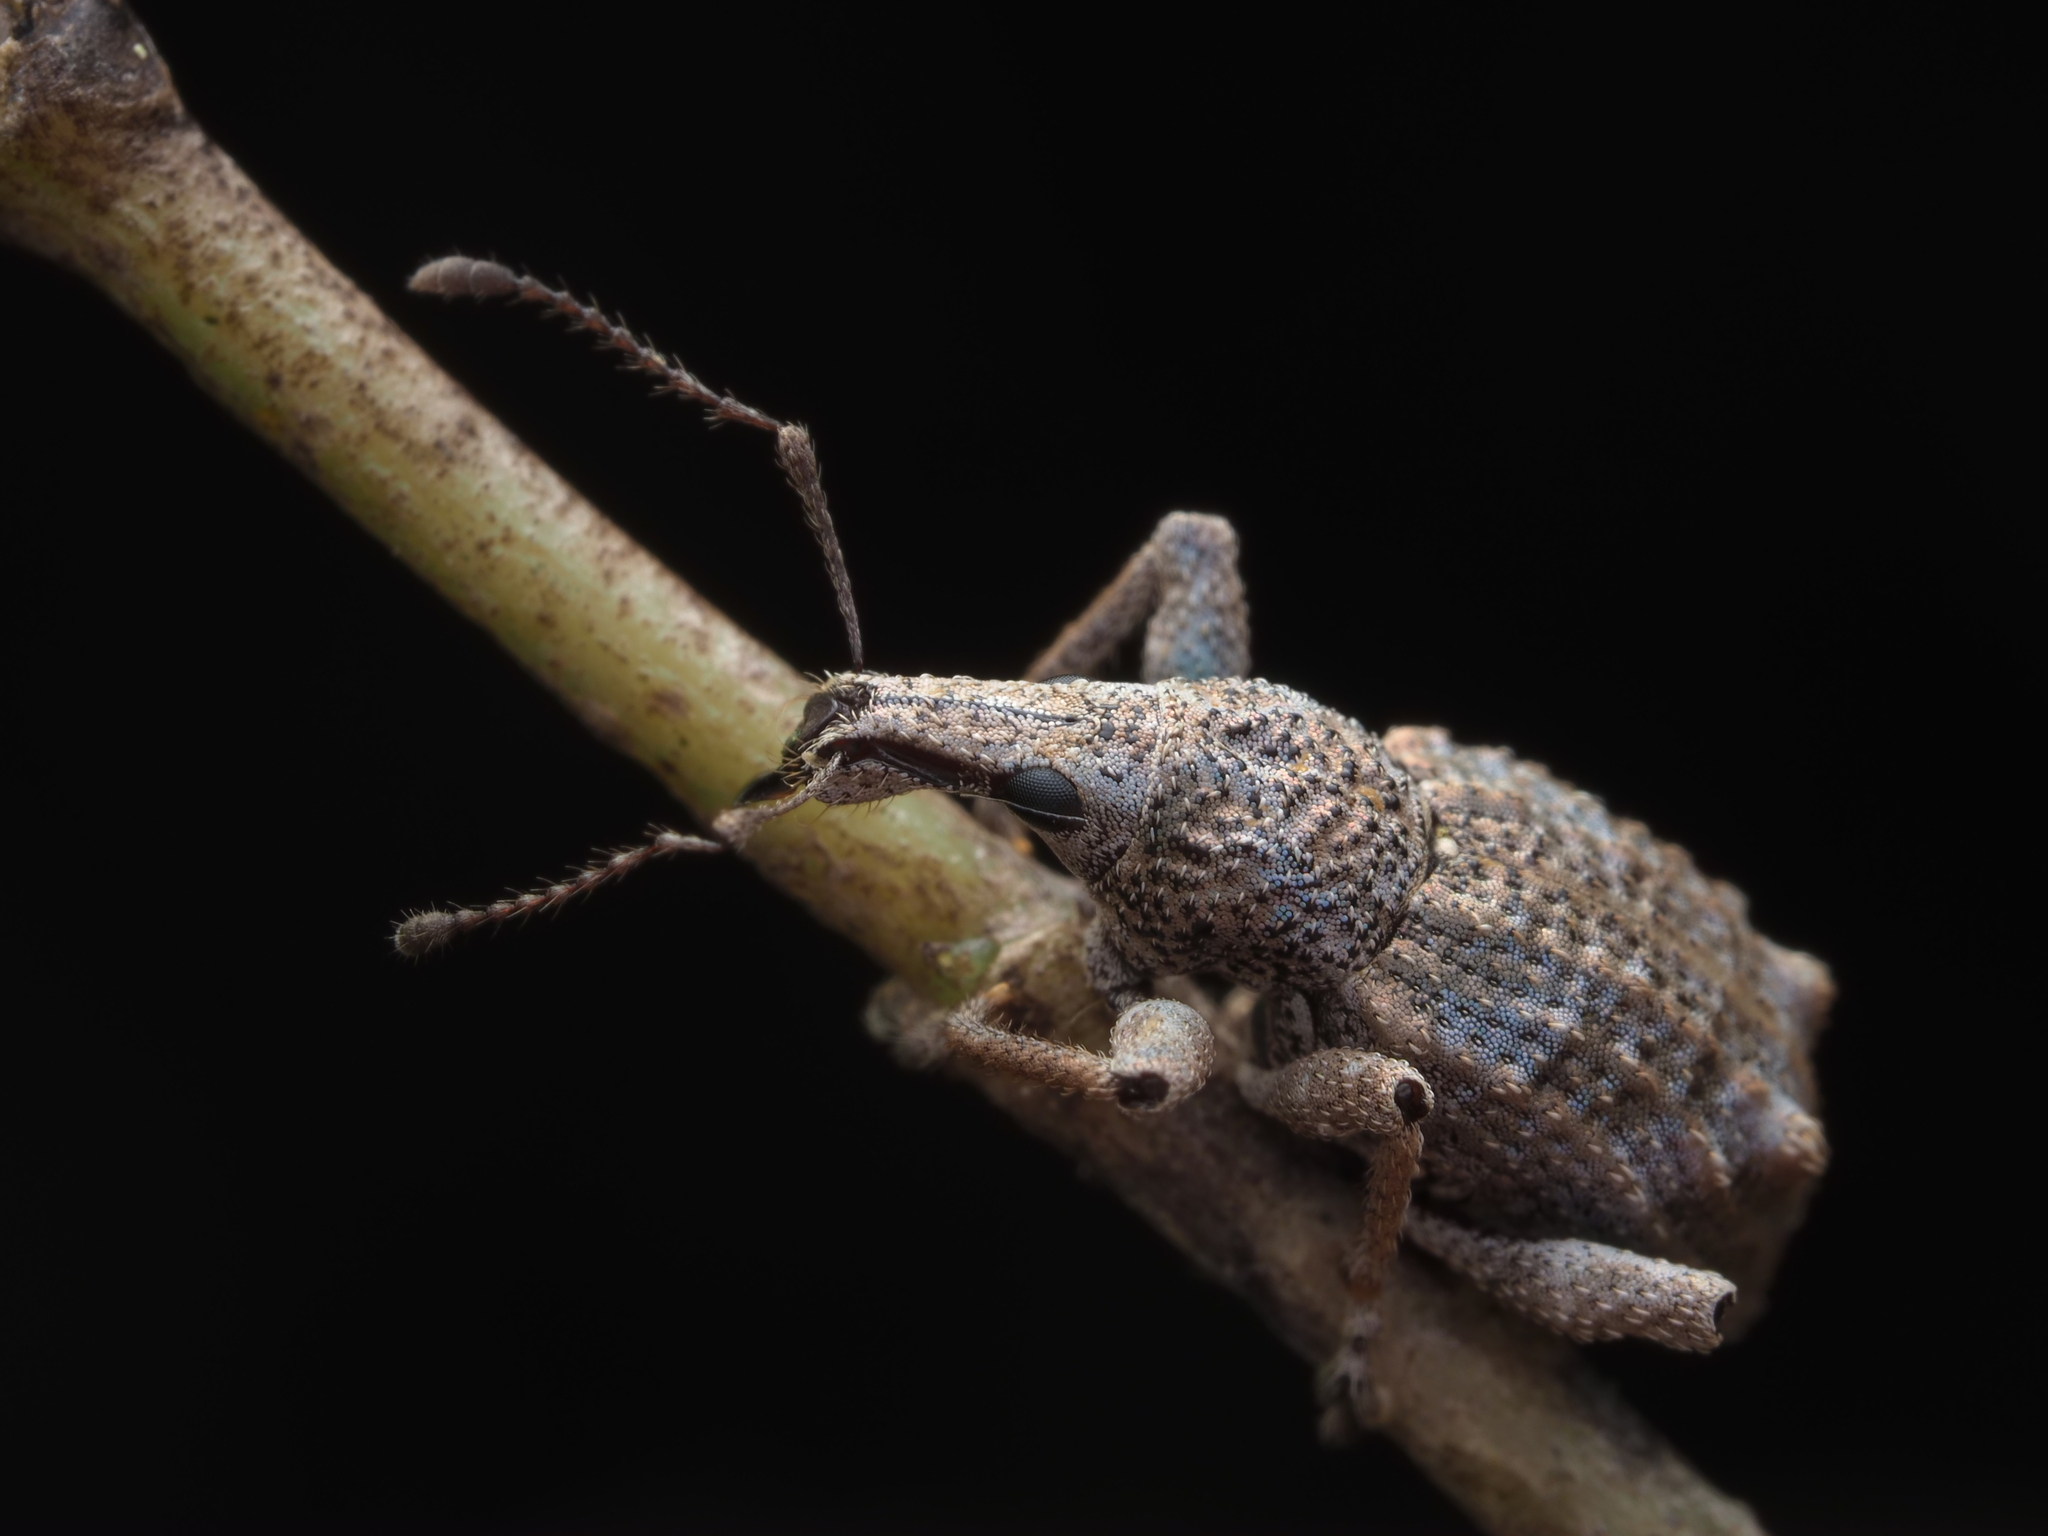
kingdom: Animalia
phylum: Arthropoda
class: Insecta
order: Coleoptera
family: Curculionidae
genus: Catoptes
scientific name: Catoptes binodis
